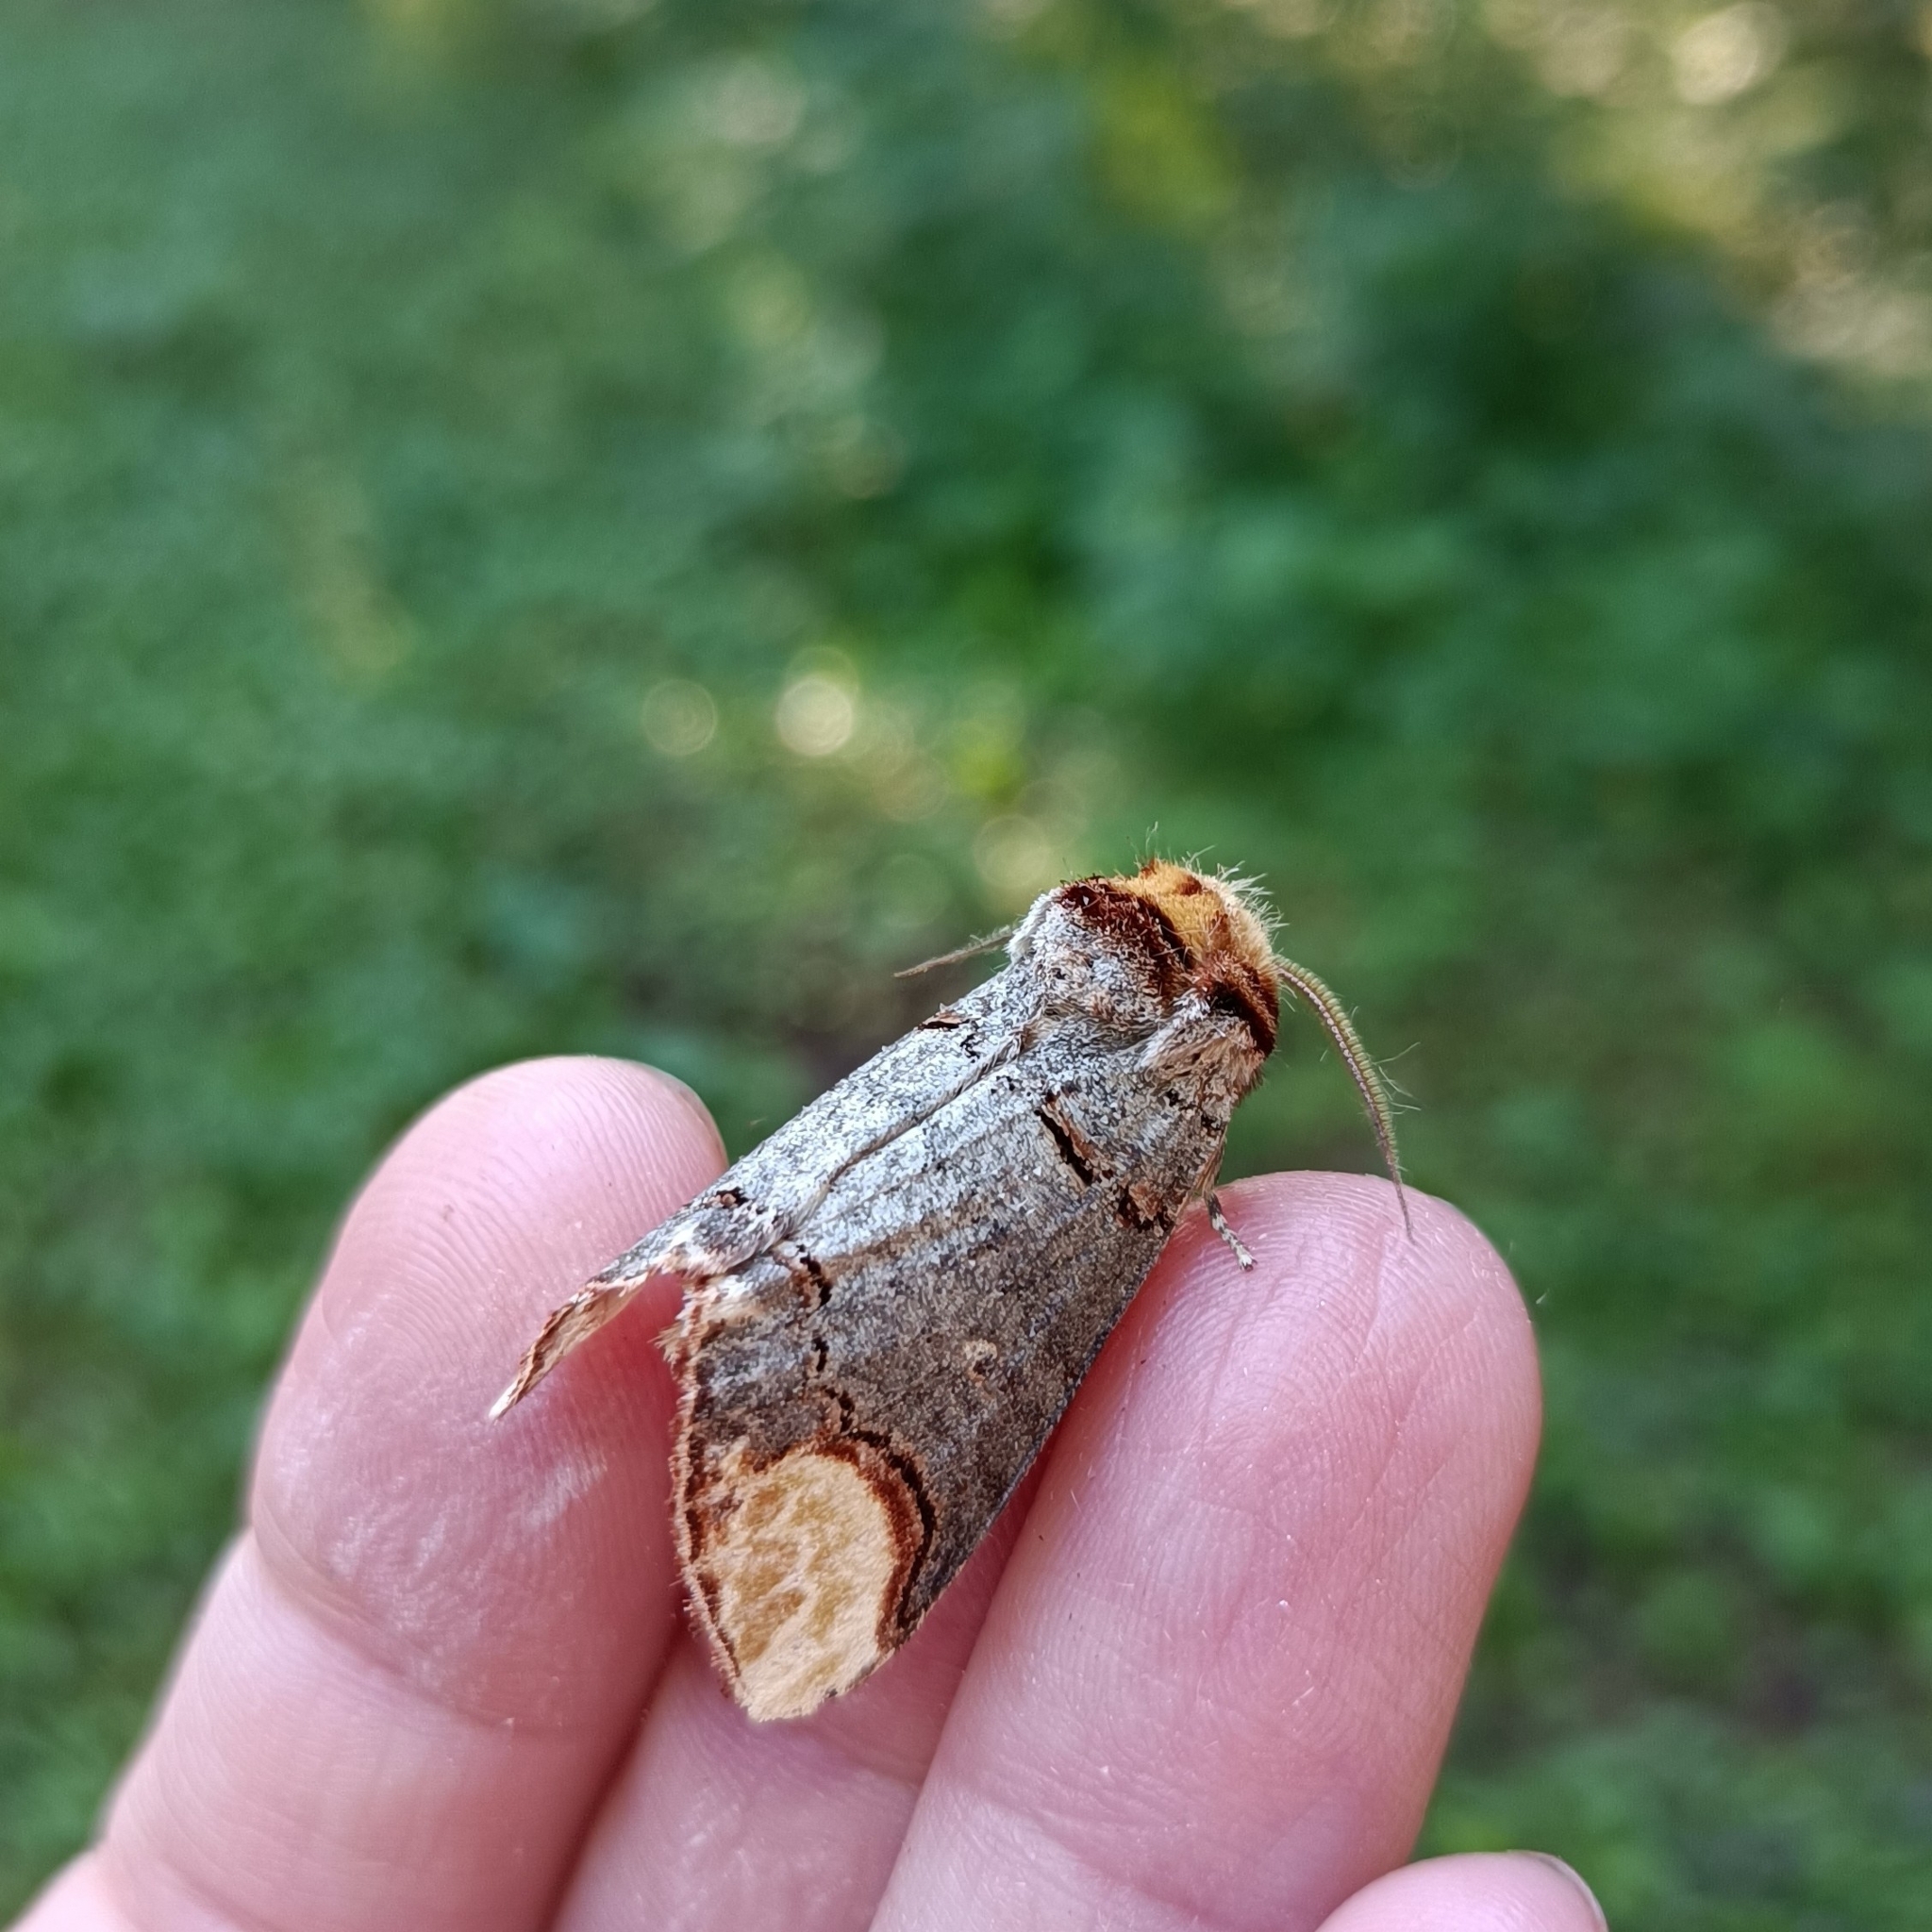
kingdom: Animalia
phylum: Arthropoda
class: Insecta
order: Lepidoptera
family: Notodontidae
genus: Phalera
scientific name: Phalera bucephala
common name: Buff-tip
